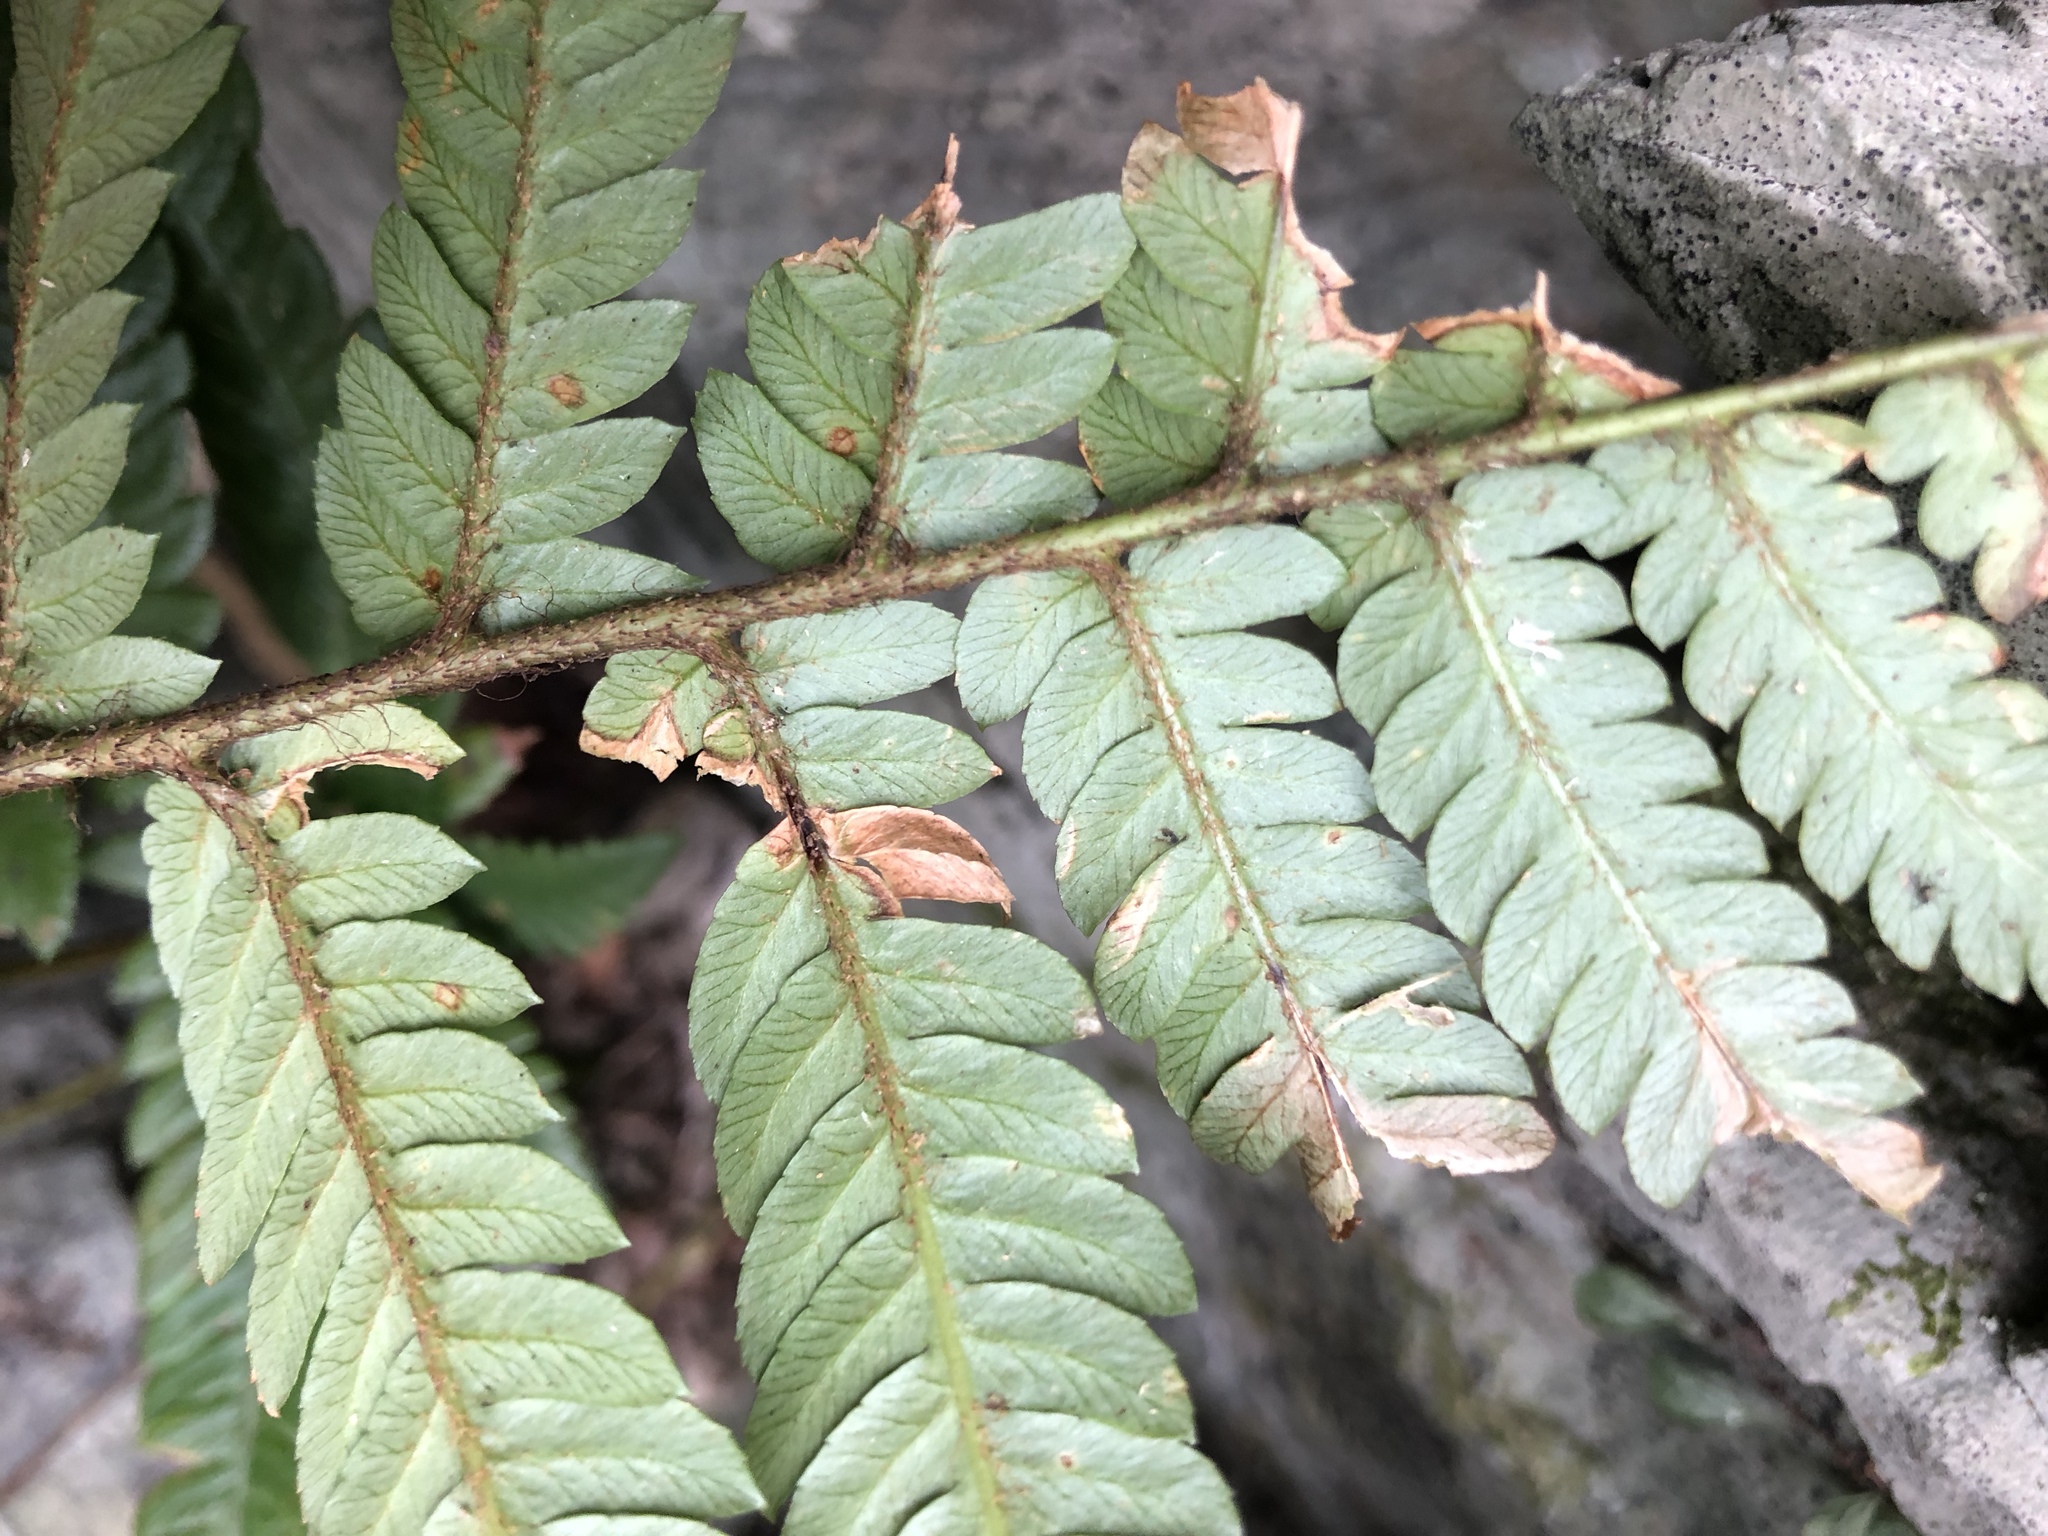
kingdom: Plantae
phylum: Tracheophyta
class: Polypodiopsida
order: Polypodiales
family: Dryopteridaceae
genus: Dryopteris
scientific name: Dryopteris varia
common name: Japanese holly fern
